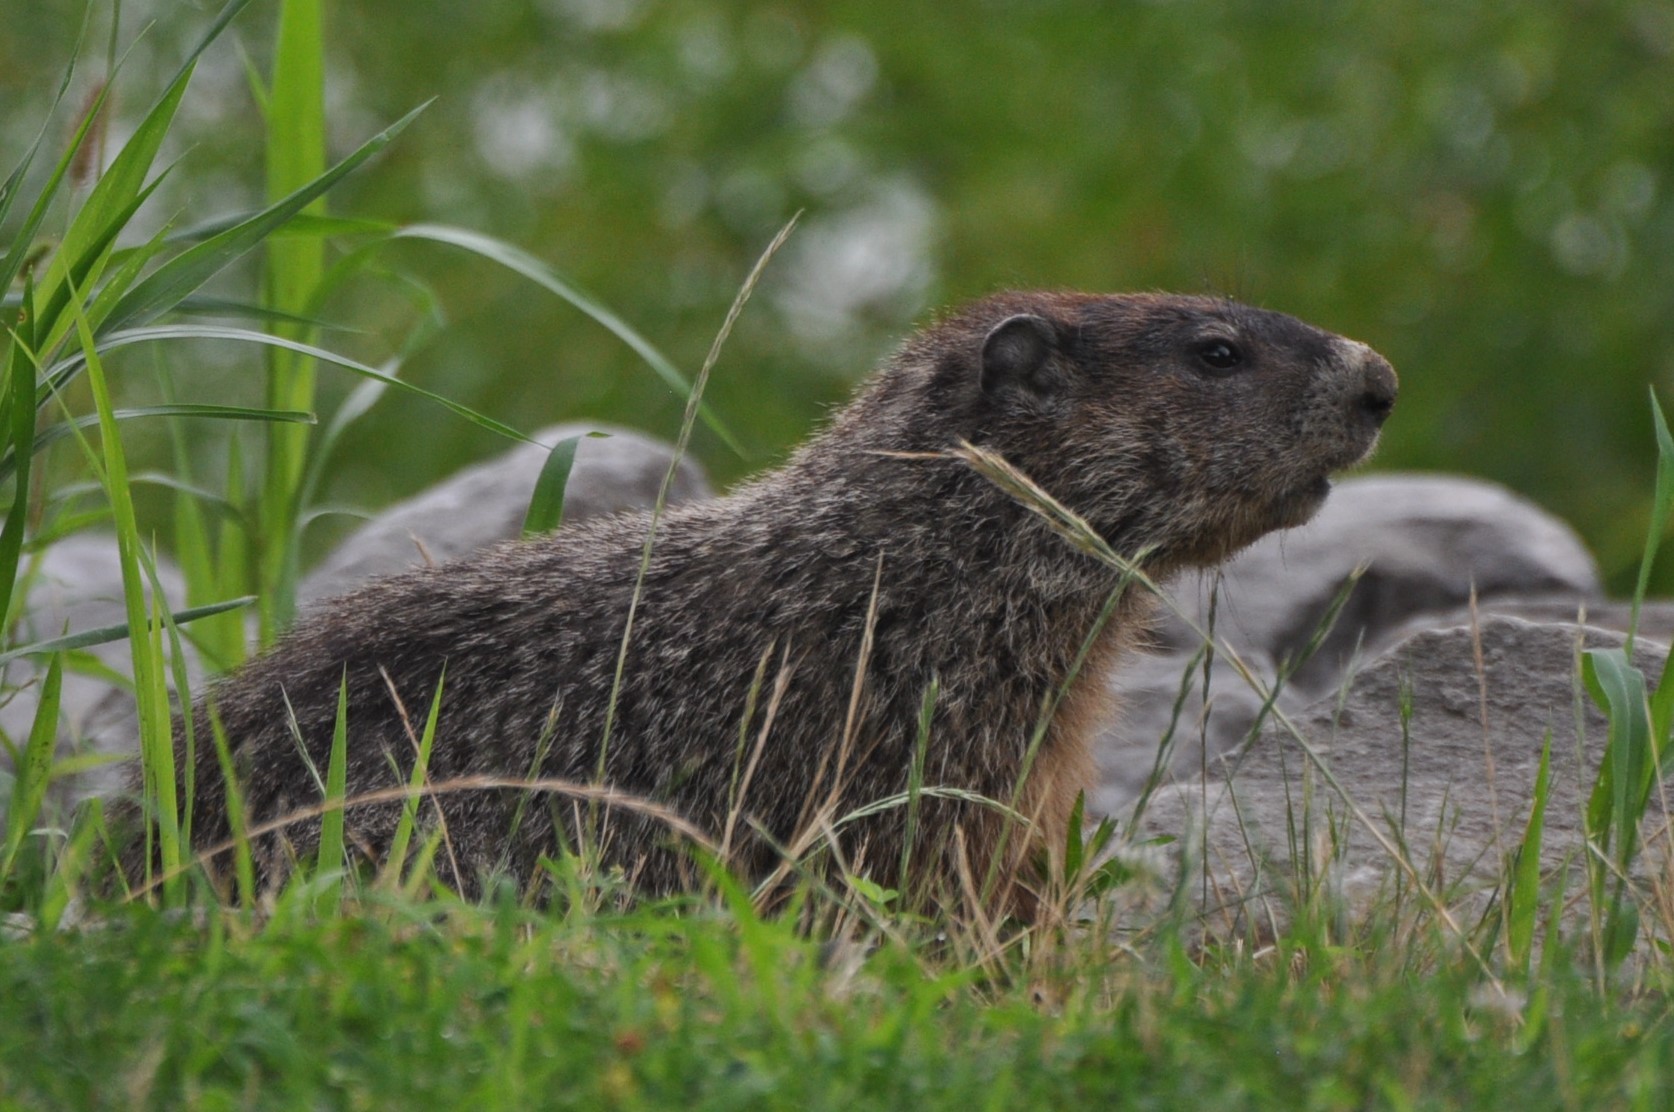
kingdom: Animalia
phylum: Chordata
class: Mammalia
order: Rodentia
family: Sciuridae
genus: Marmota
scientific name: Marmota monax
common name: Groundhog
